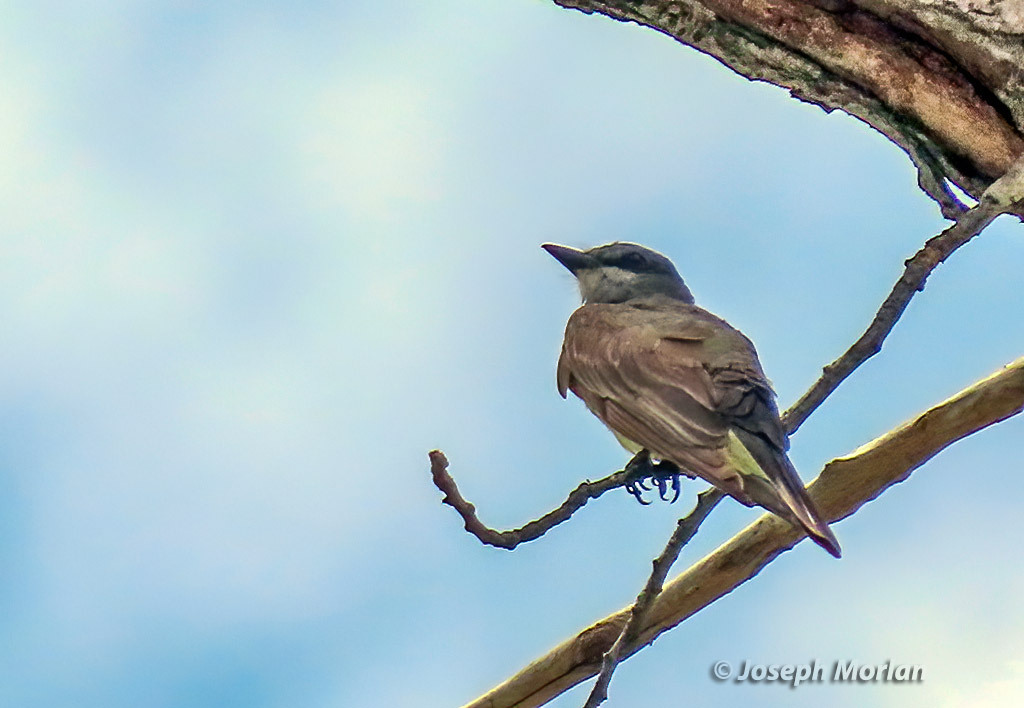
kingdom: Animalia
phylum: Chordata
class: Aves
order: Passeriformes
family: Tyrannidae
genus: Tyrannus
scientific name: Tyrannus vociferans
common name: Cassin's kingbird
